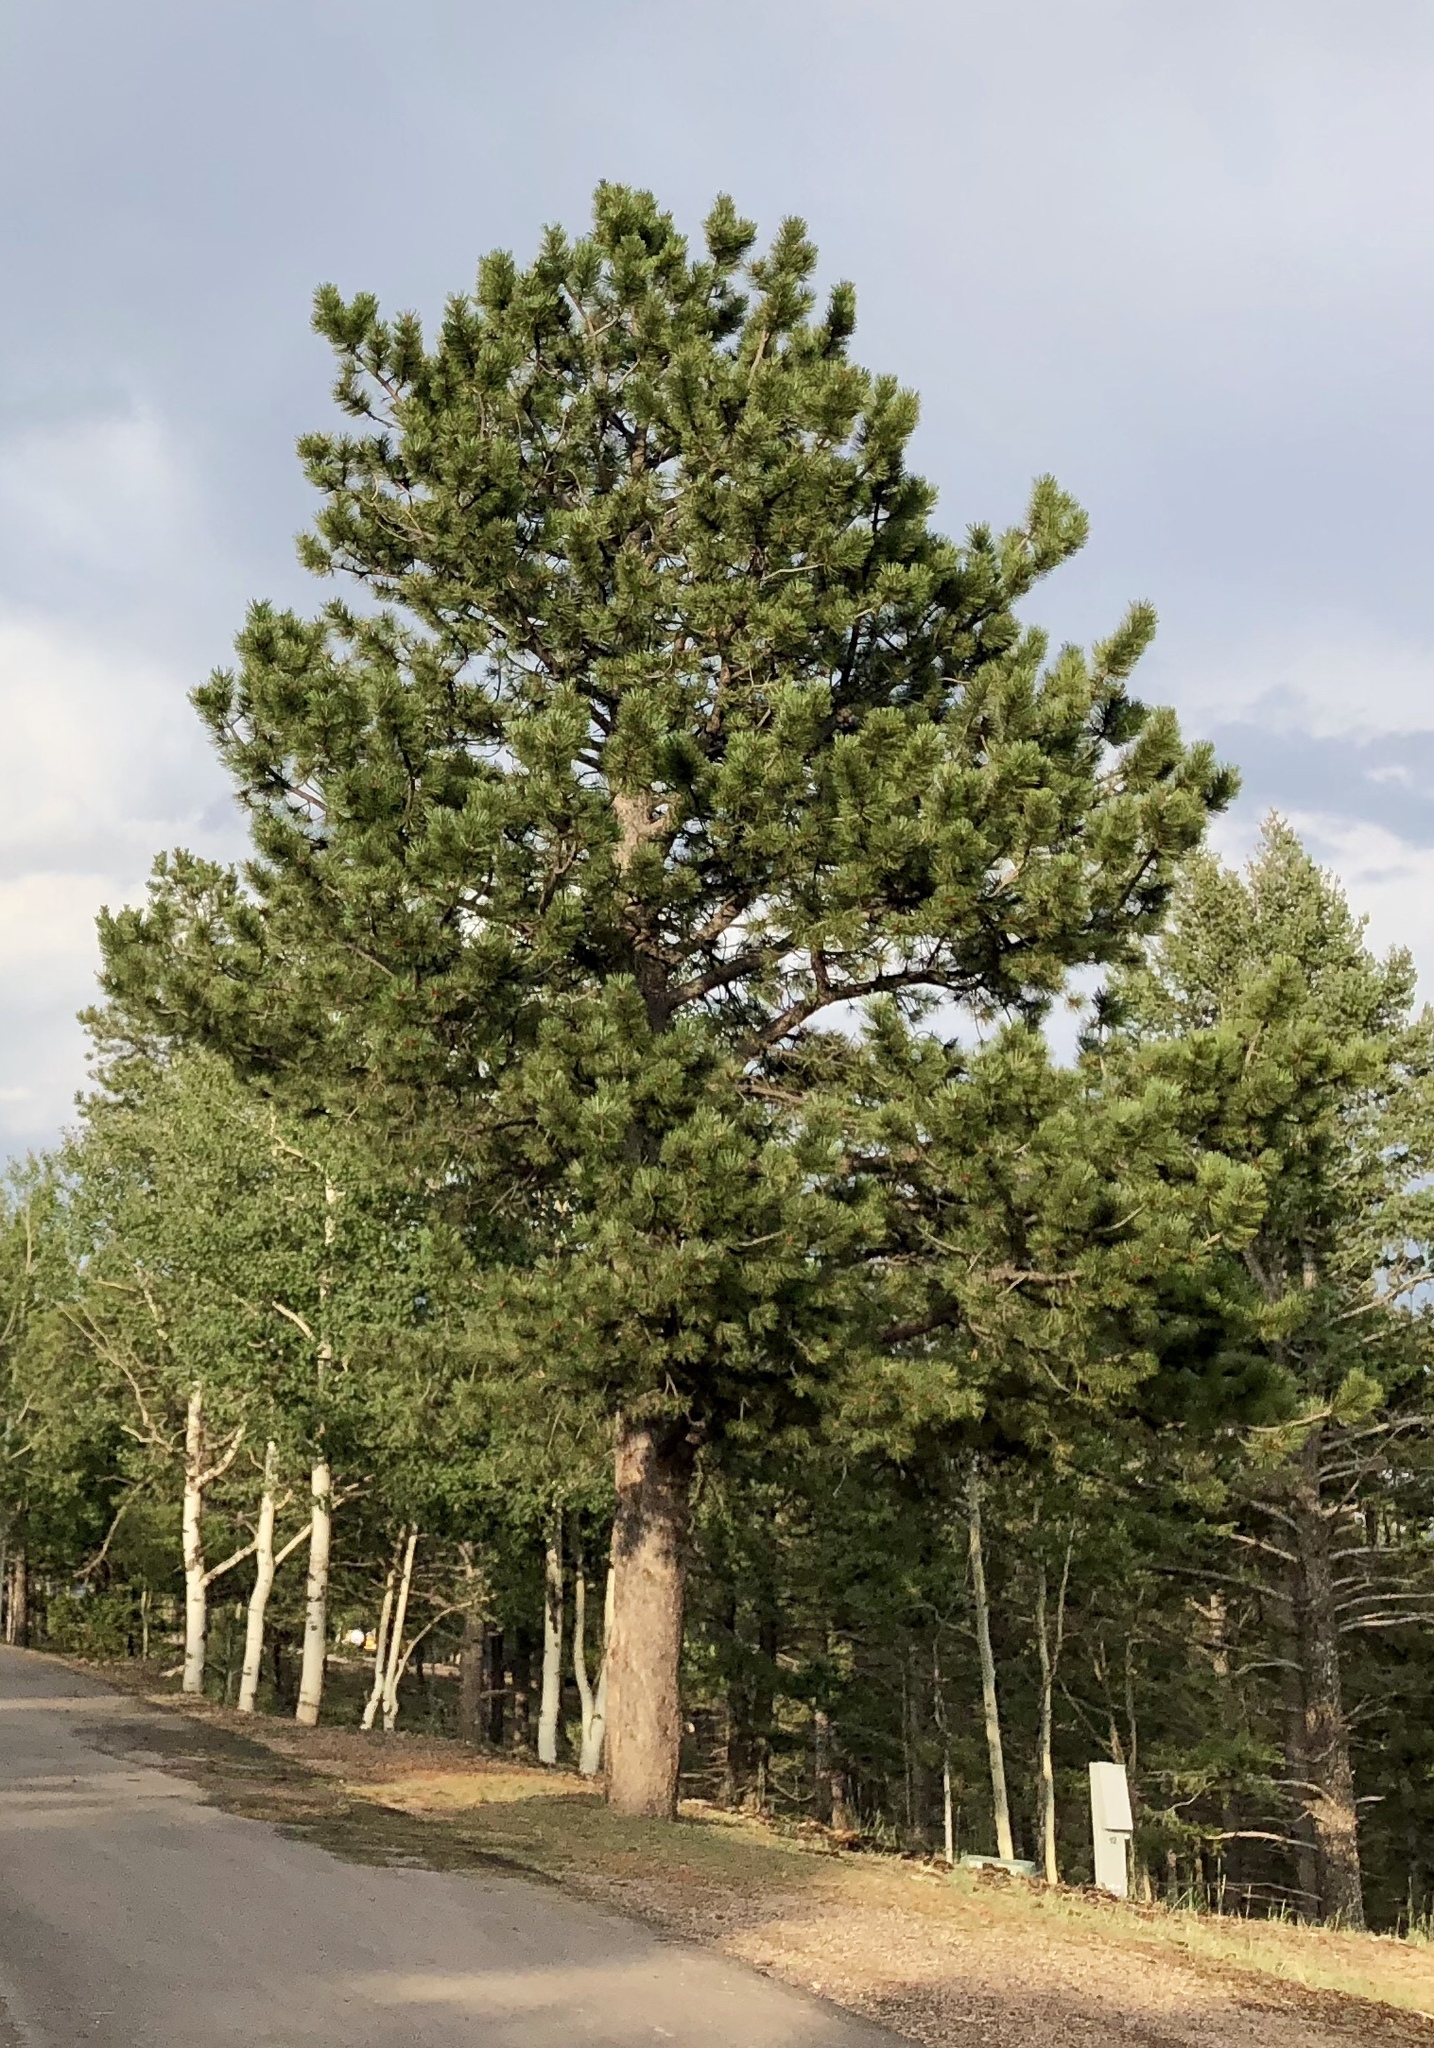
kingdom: Plantae
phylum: Tracheophyta
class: Pinopsida
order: Pinales
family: Pinaceae
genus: Pinus
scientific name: Pinus ponderosa
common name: Western yellow-pine
